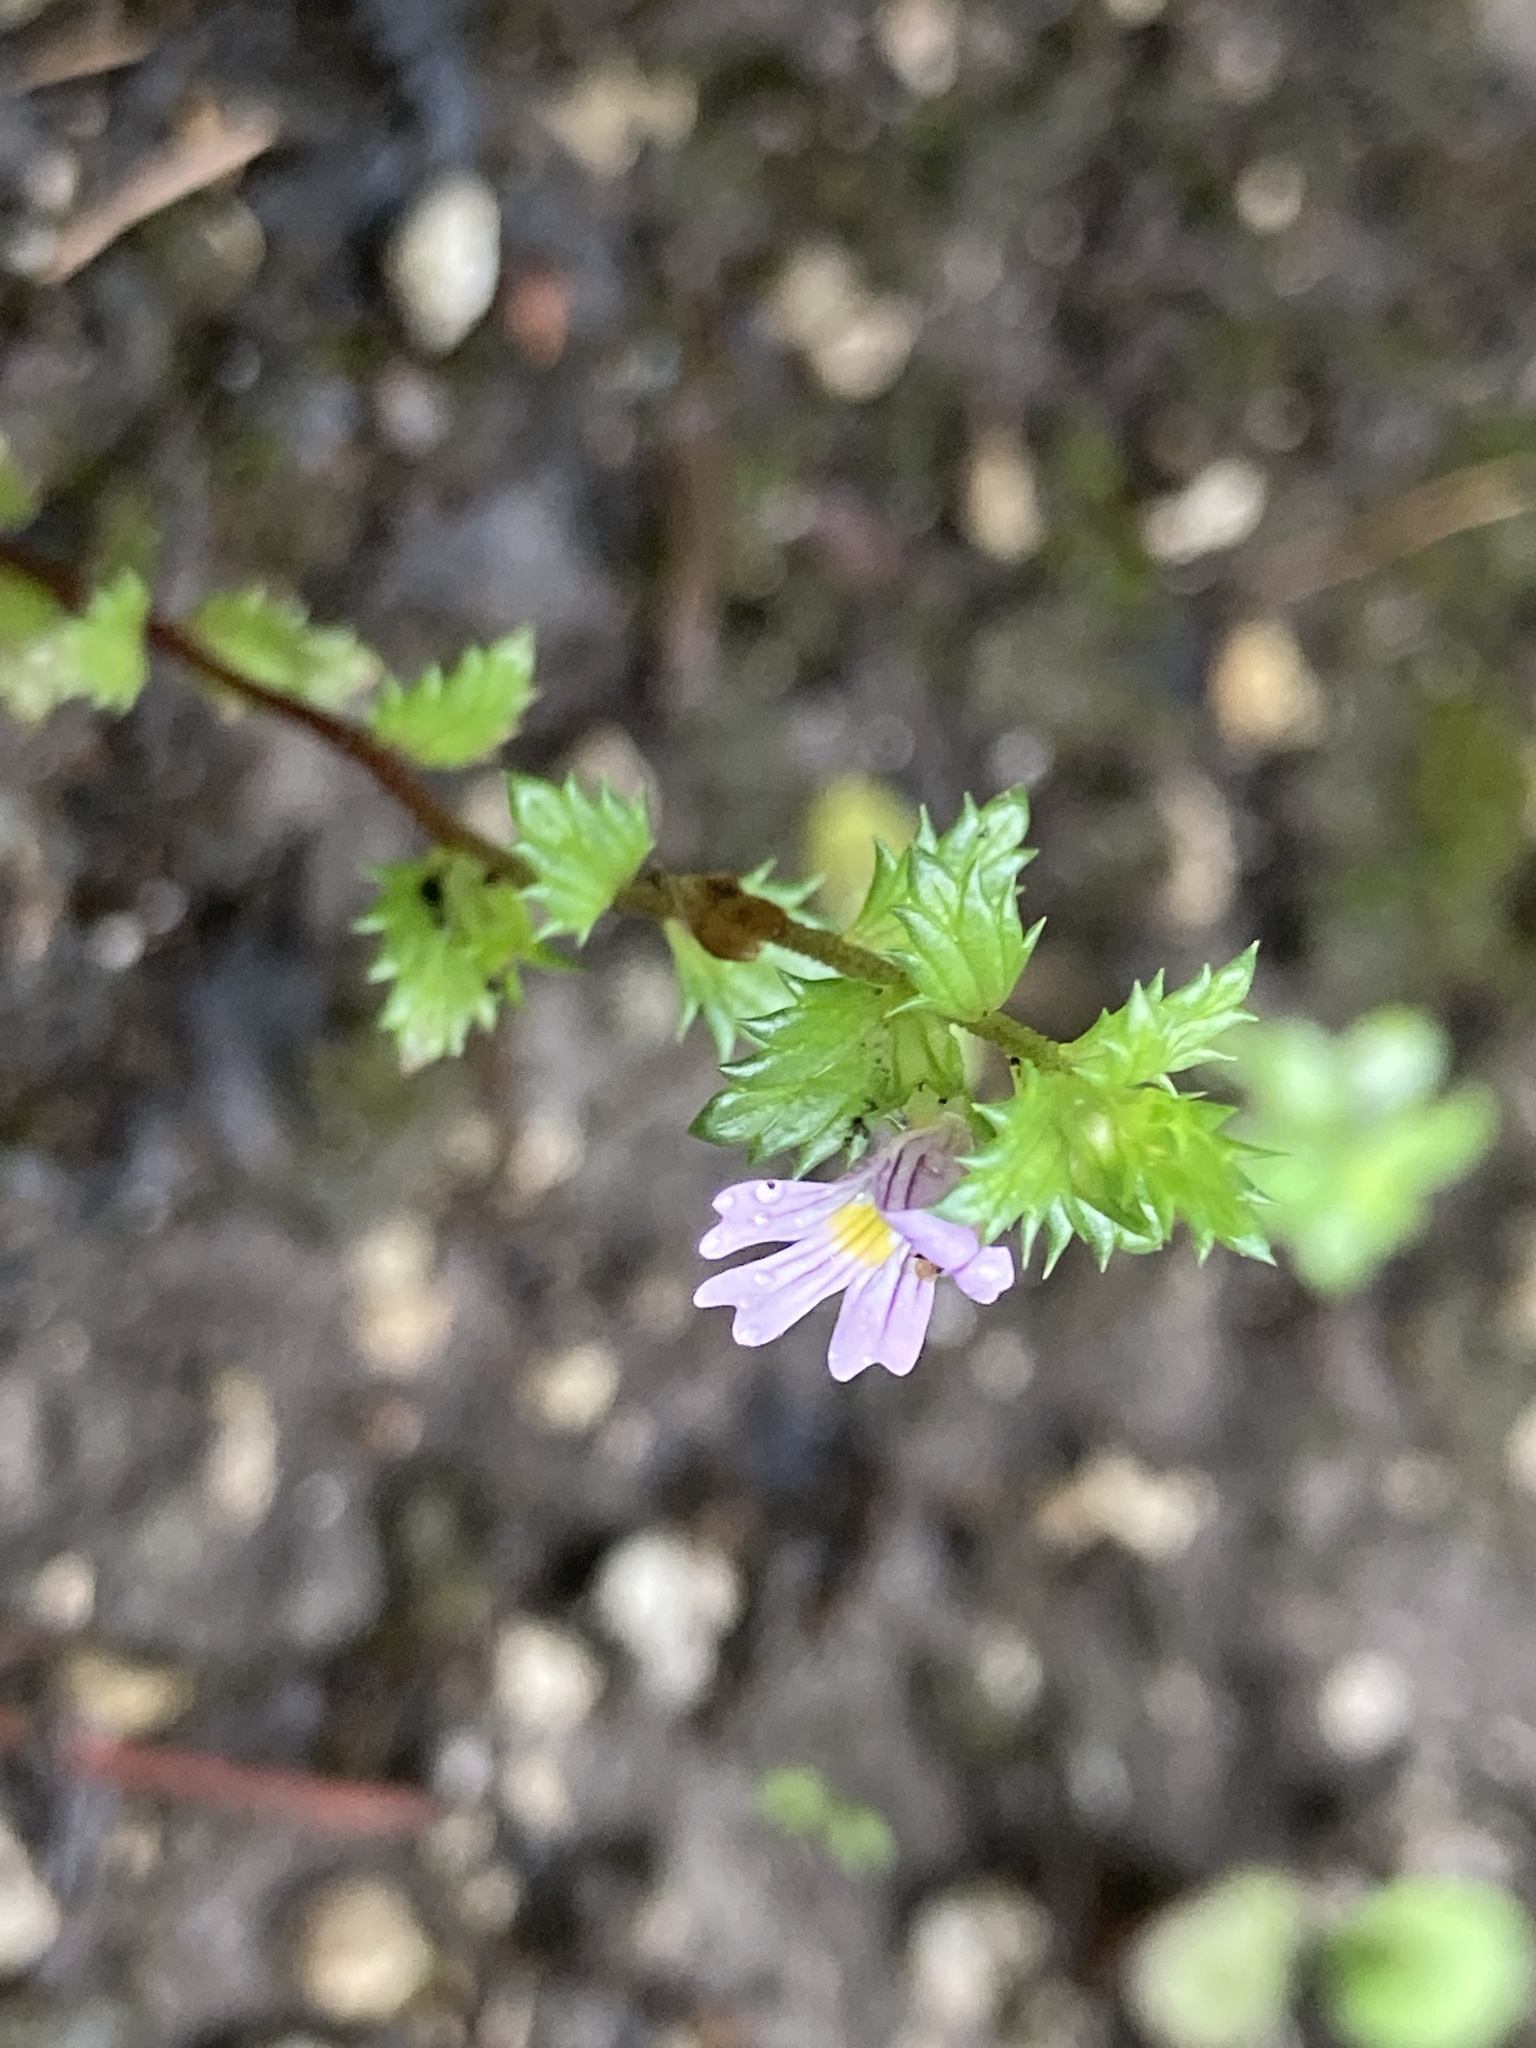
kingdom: Plantae
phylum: Tracheophyta
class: Magnoliopsida
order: Lamiales
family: Orobanchaceae
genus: Euphrasia
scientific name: Euphrasia stricta
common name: Drug eyebright
